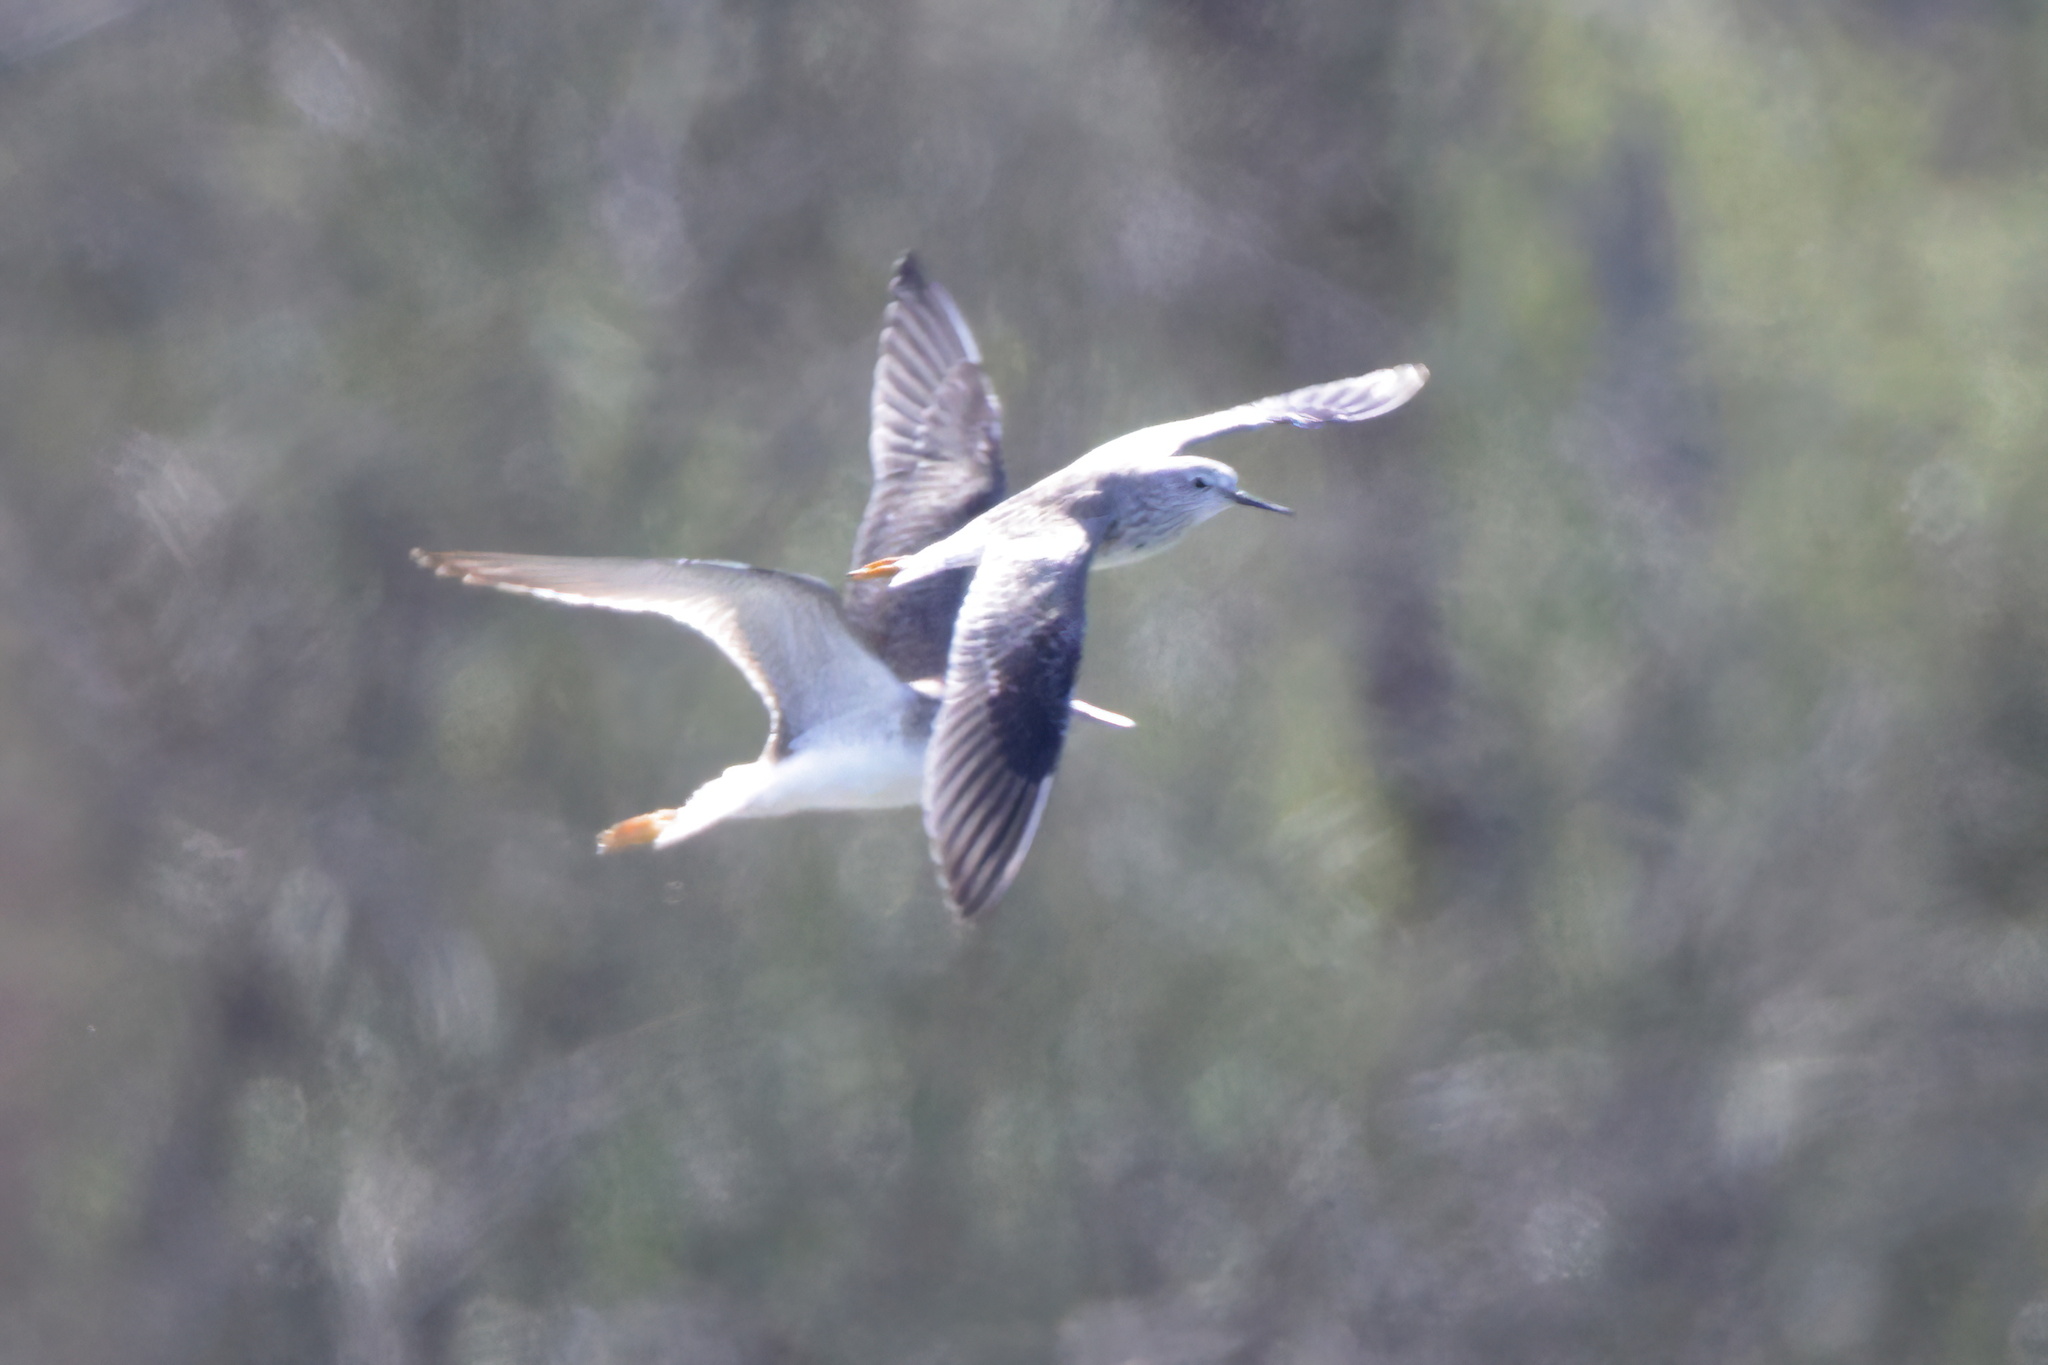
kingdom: Animalia
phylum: Chordata
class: Aves
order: Charadriiformes
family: Scolopacidae
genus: Tringa
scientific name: Tringa flavipes
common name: Lesser yellowlegs
